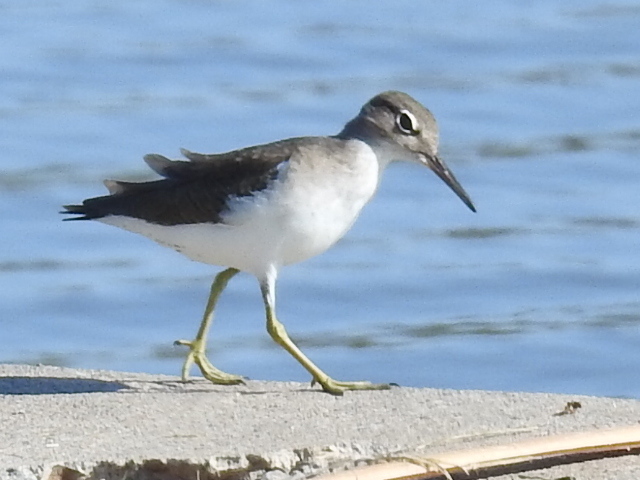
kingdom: Animalia
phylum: Chordata
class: Aves
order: Charadriiformes
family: Scolopacidae
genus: Actitis
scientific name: Actitis macularius
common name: Spotted sandpiper
